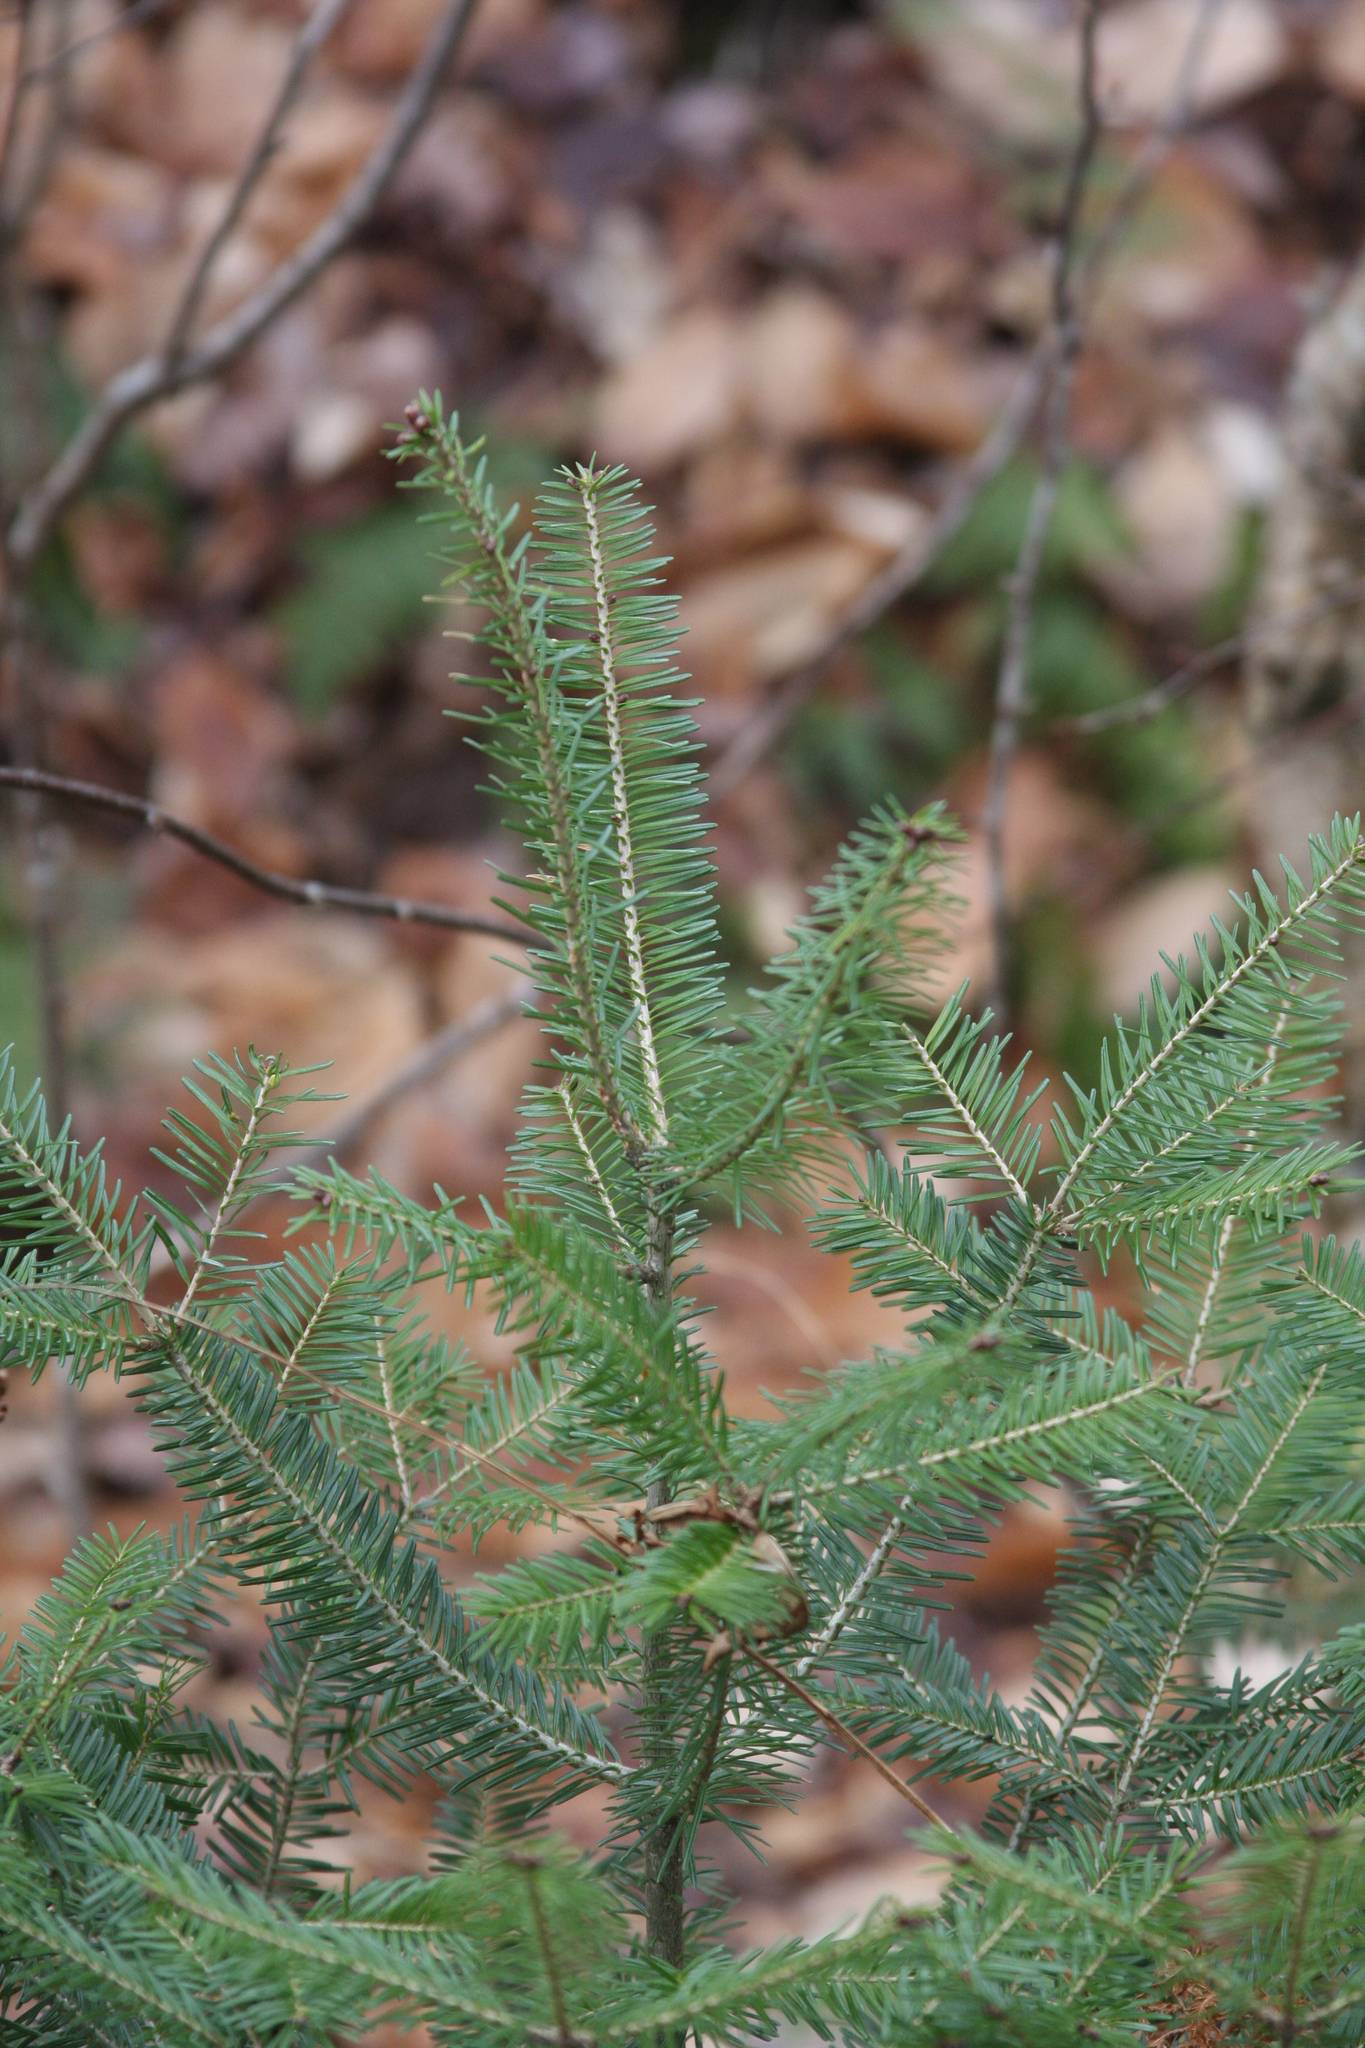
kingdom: Plantae
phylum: Tracheophyta
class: Pinopsida
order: Pinales
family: Pinaceae
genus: Abies
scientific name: Abies balsamea
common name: Balsam fir
